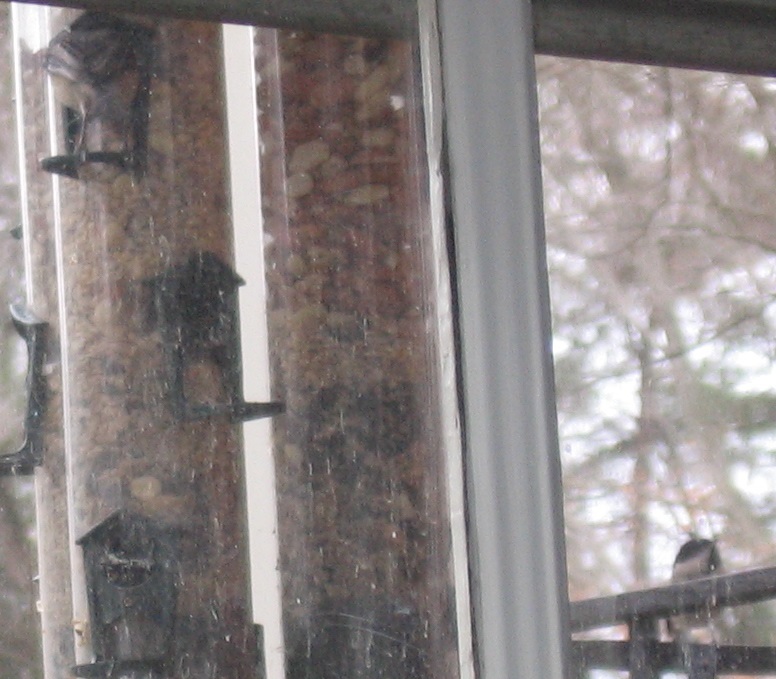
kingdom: Animalia
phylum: Chordata
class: Aves
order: Passeriformes
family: Paridae
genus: Poecile
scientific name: Poecile carolinensis
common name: Carolina chickadee
